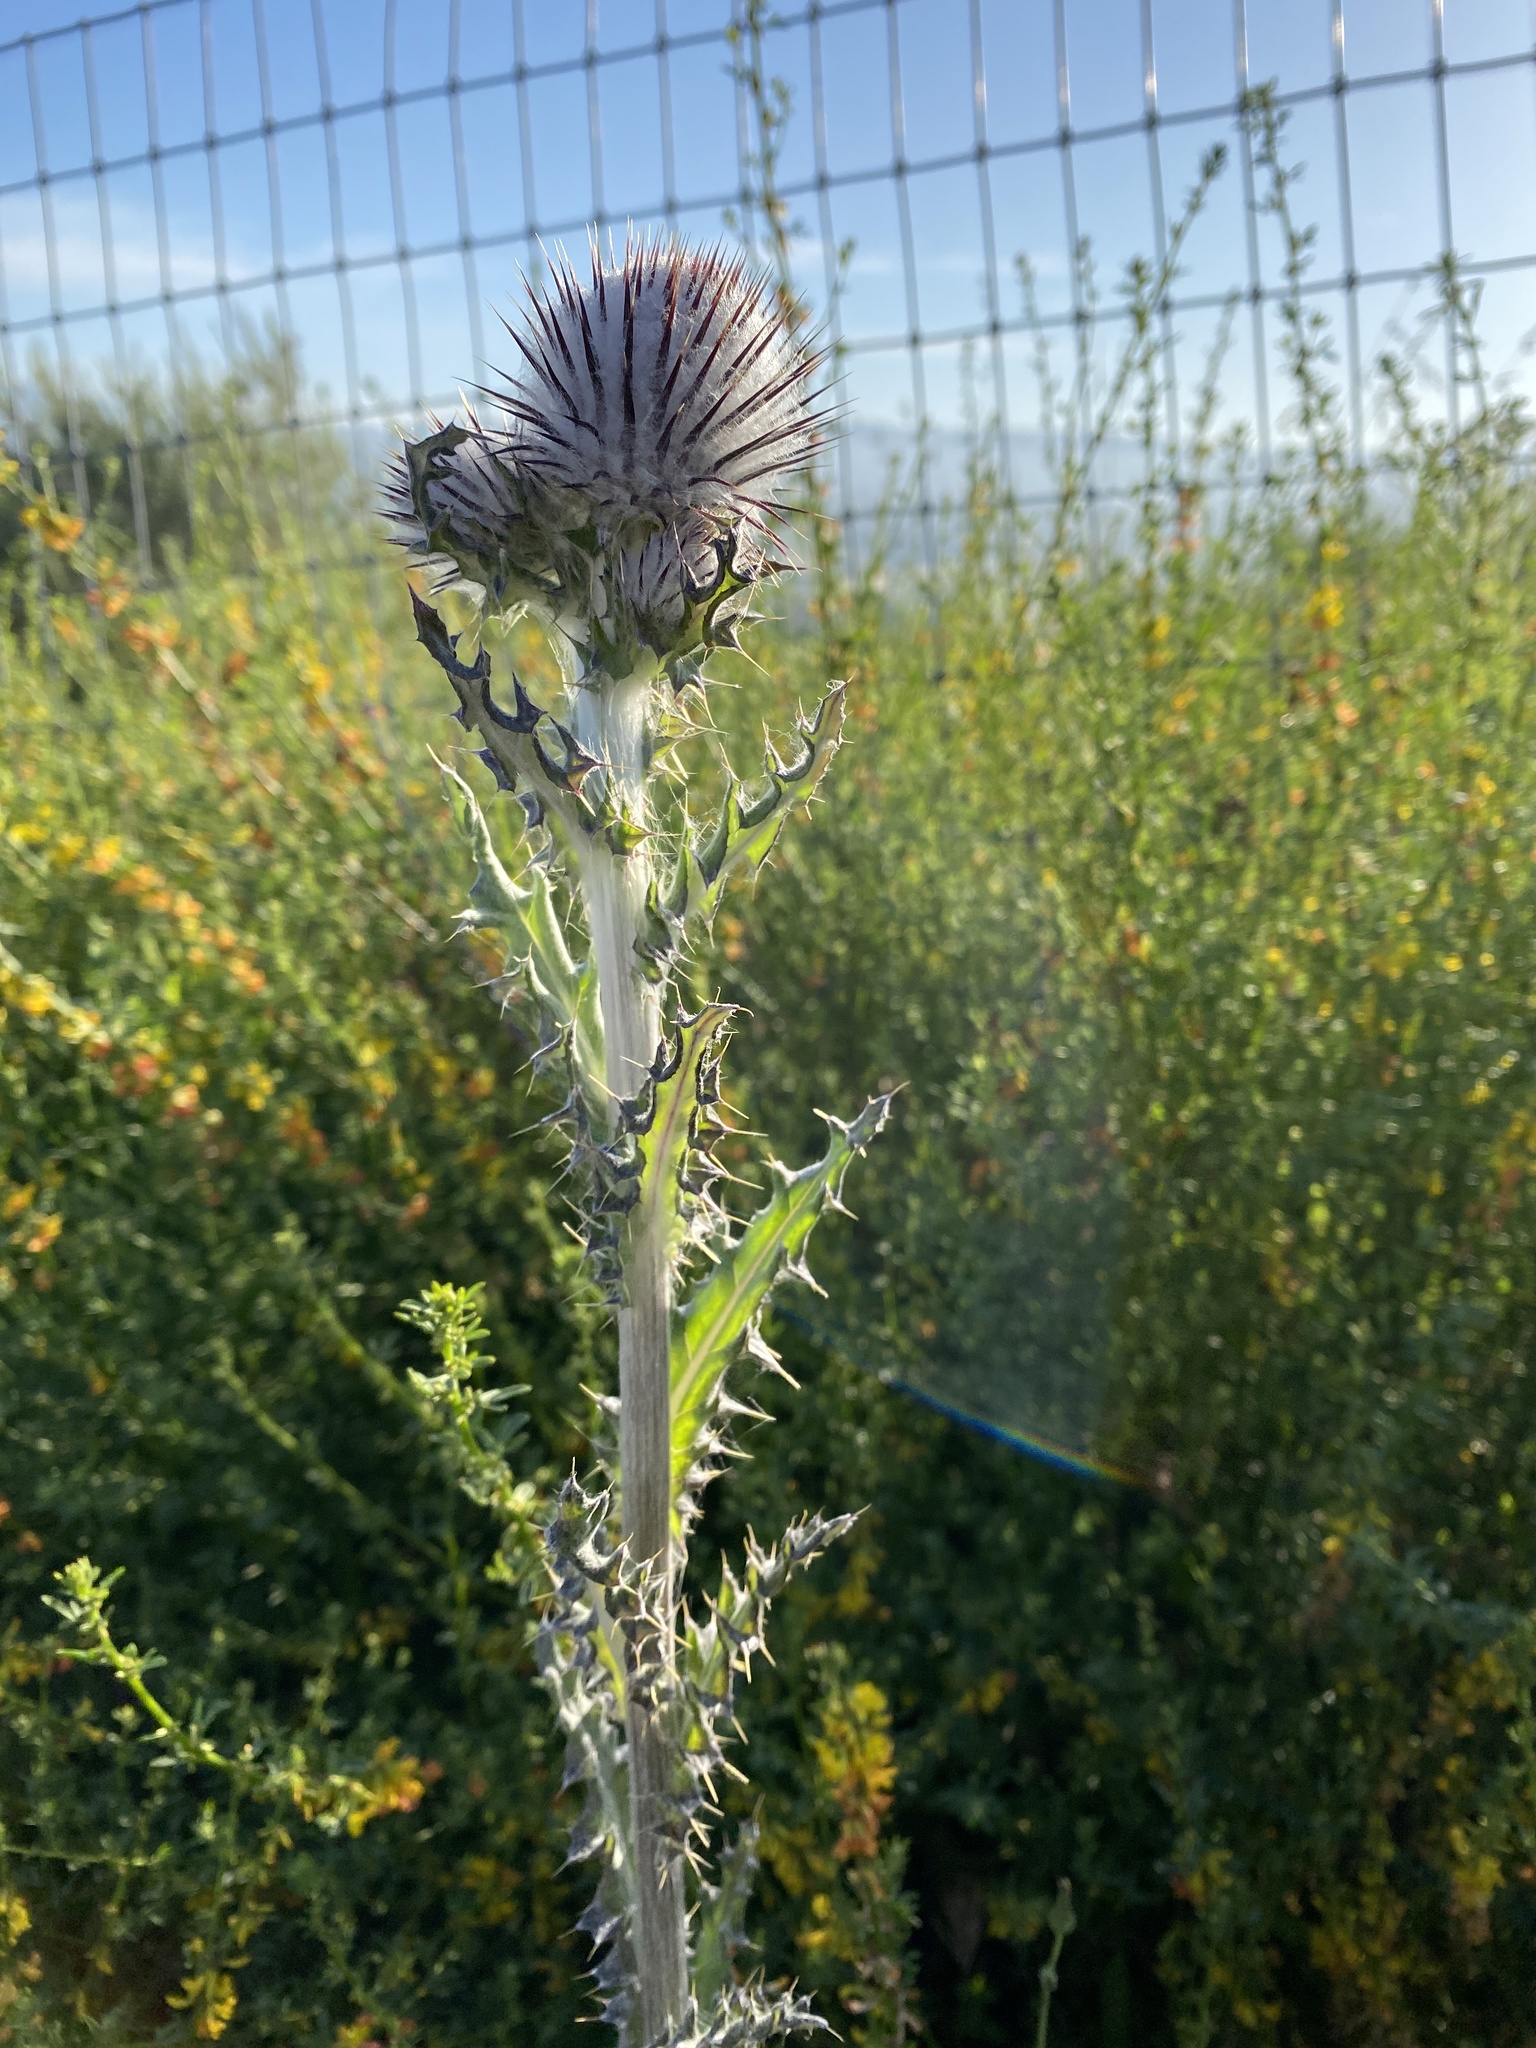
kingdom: Plantae
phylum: Tracheophyta
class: Magnoliopsida
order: Asterales
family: Asteraceae
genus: Cirsium
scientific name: Cirsium occidentale
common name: Western thistle
